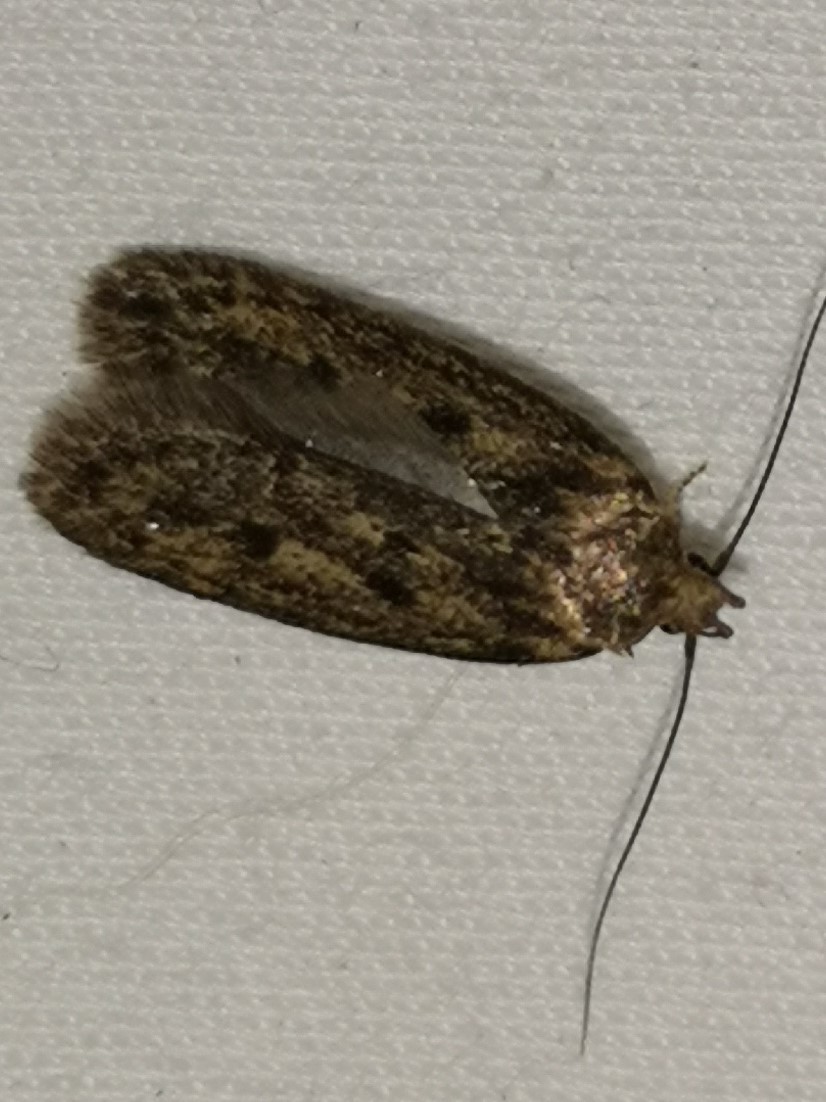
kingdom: Animalia
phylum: Arthropoda
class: Insecta
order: Lepidoptera
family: Oecophoridae
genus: Hofmannophila
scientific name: Hofmannophila pseudospretella
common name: Brown house moth
